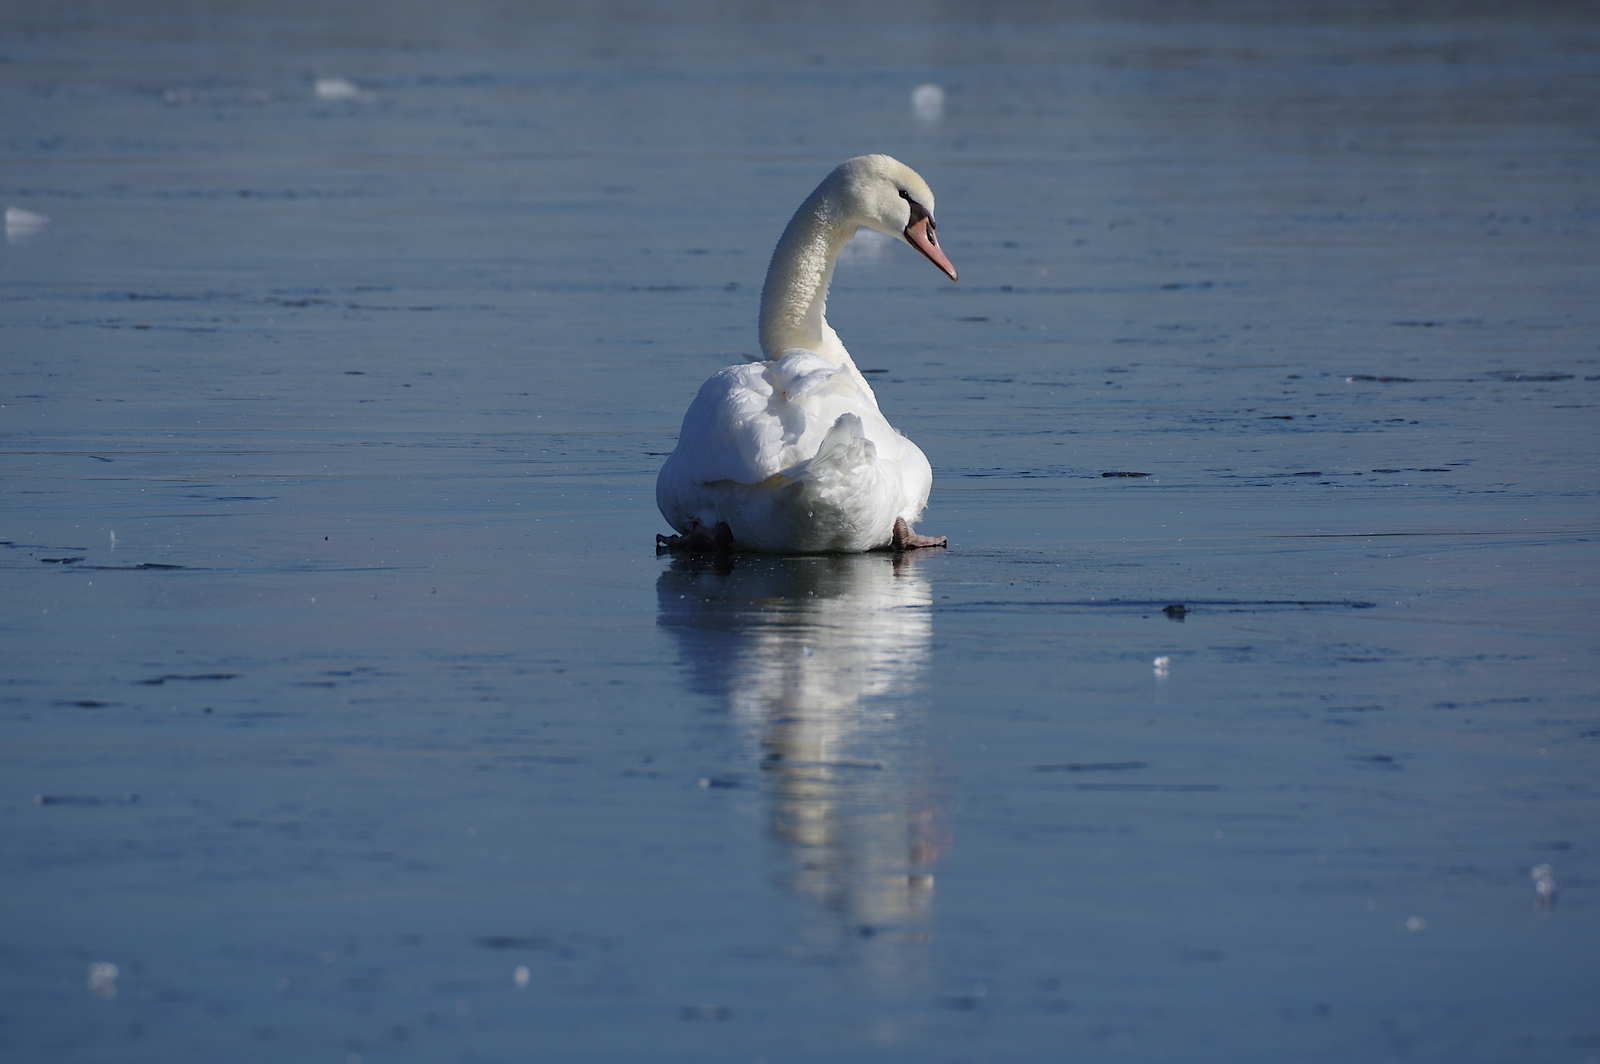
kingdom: Animalia
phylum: Chordata
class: Aves
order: Anseriformes
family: Anatidae
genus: Cygnus
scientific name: Cygnus olor
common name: Mute swan
